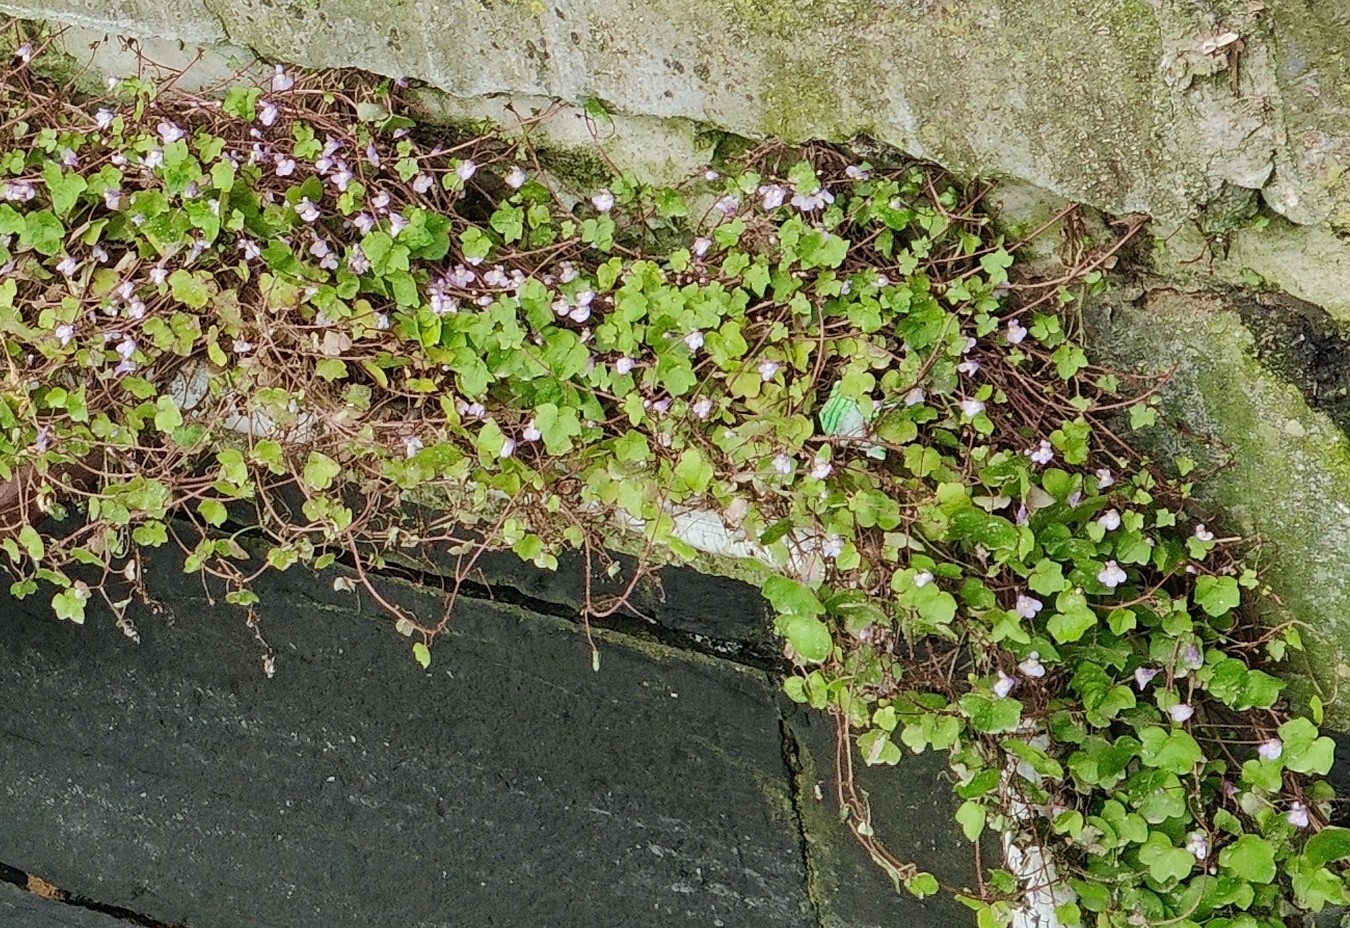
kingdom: Plantae
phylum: Tracheophyta
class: Magnoliopsida
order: Lamiales
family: Plantaginaceae
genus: Cymbalaria
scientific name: Cymbalaria muralis
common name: Ivy-leaved toadflax
